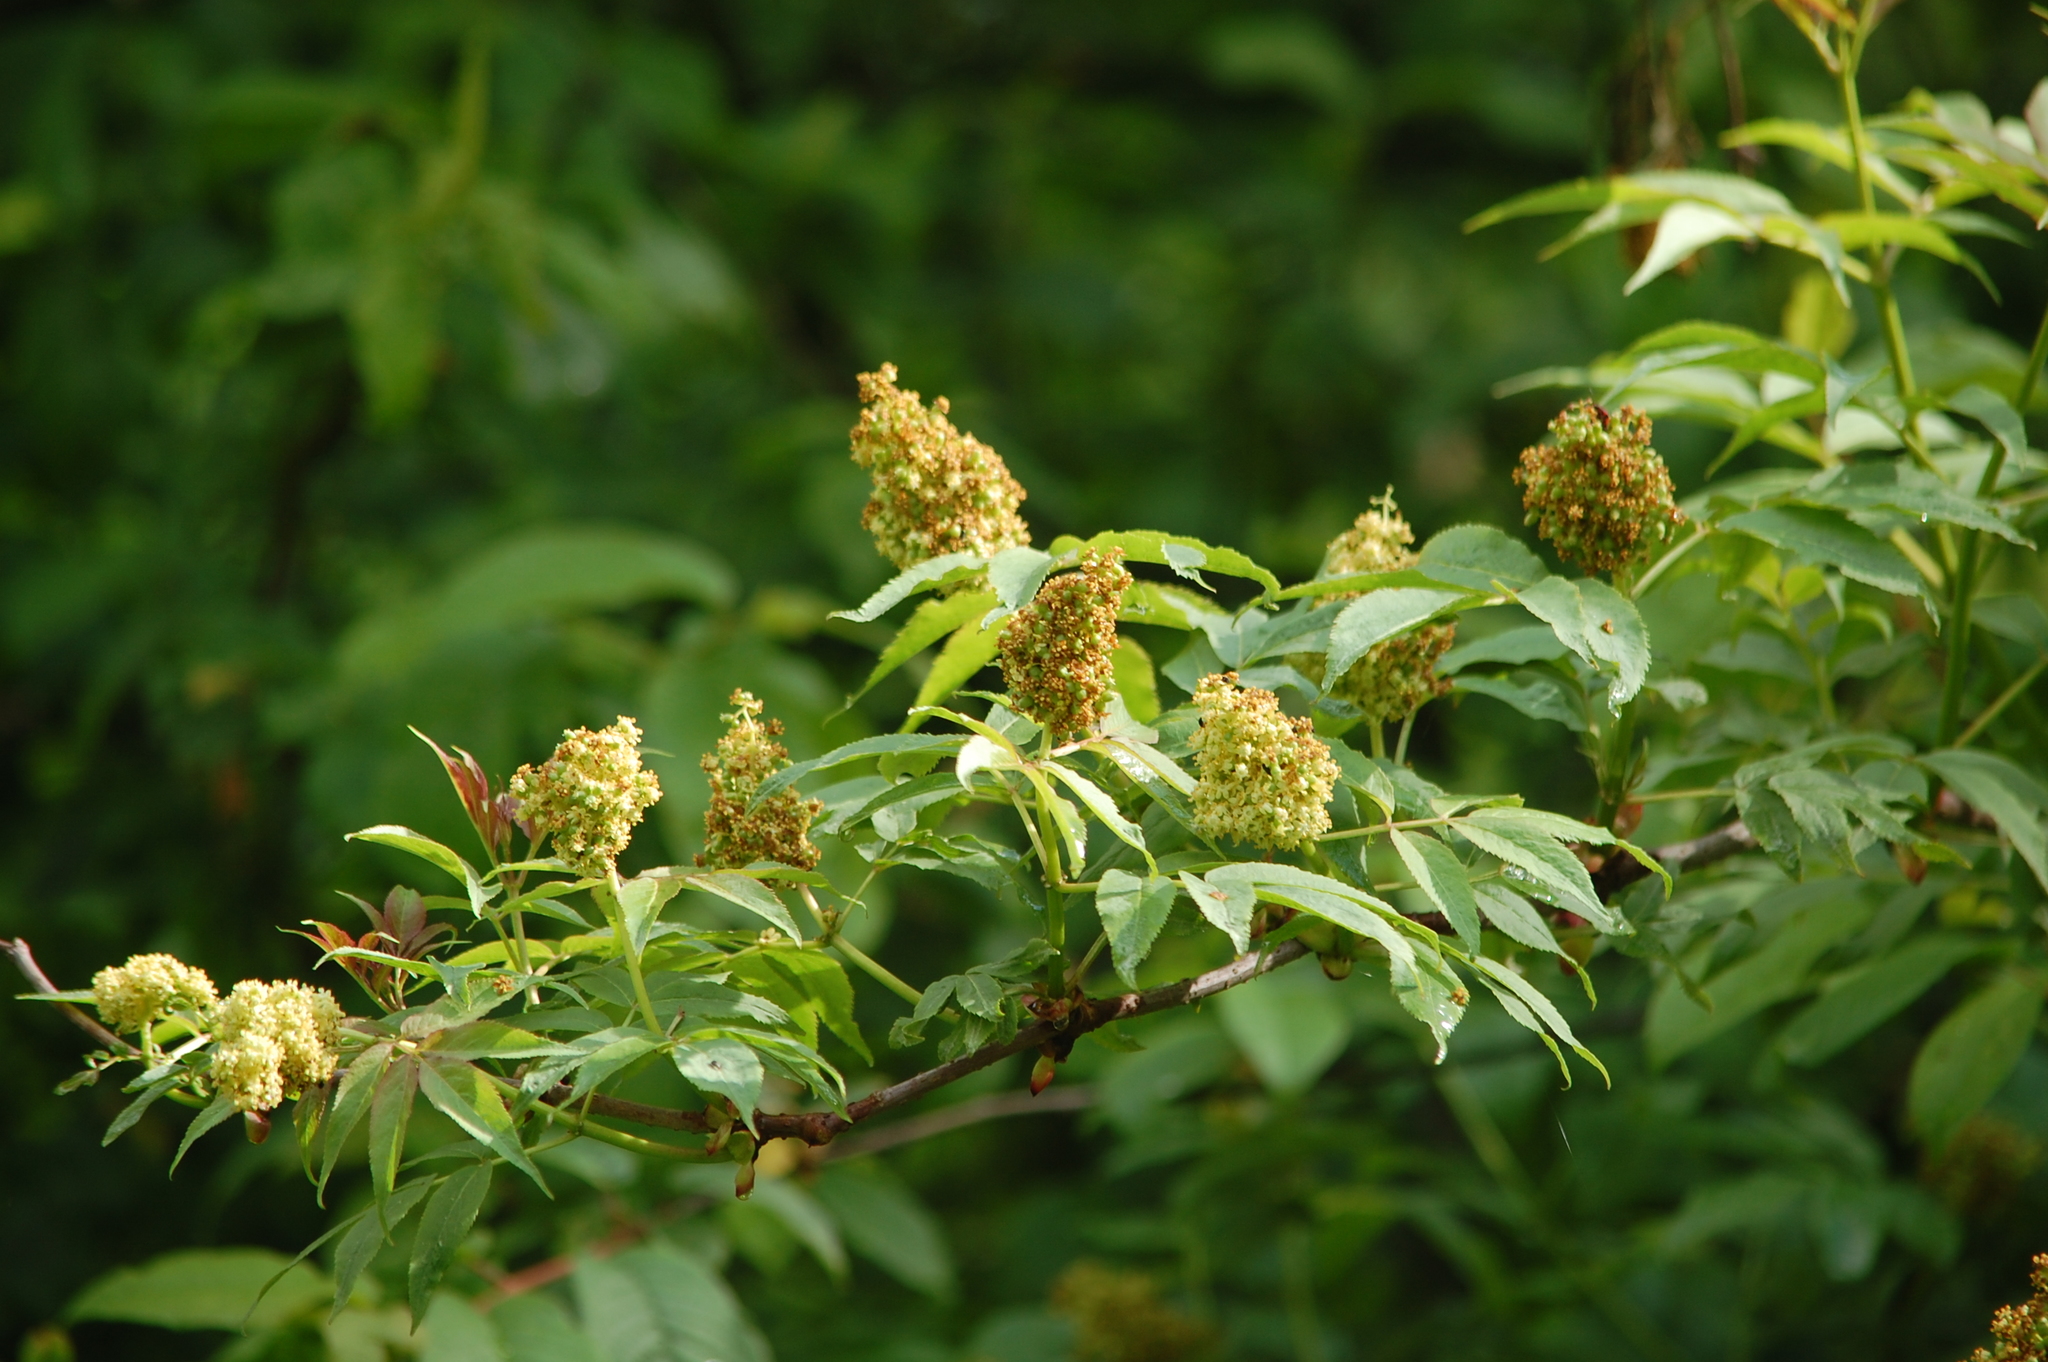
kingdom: Plantae
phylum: Tracheophyta
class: Magnoliopsida
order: Dipsacales
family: Viburnaceae
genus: Sambucus
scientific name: Sambucus racemosa
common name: Red-berried elder
